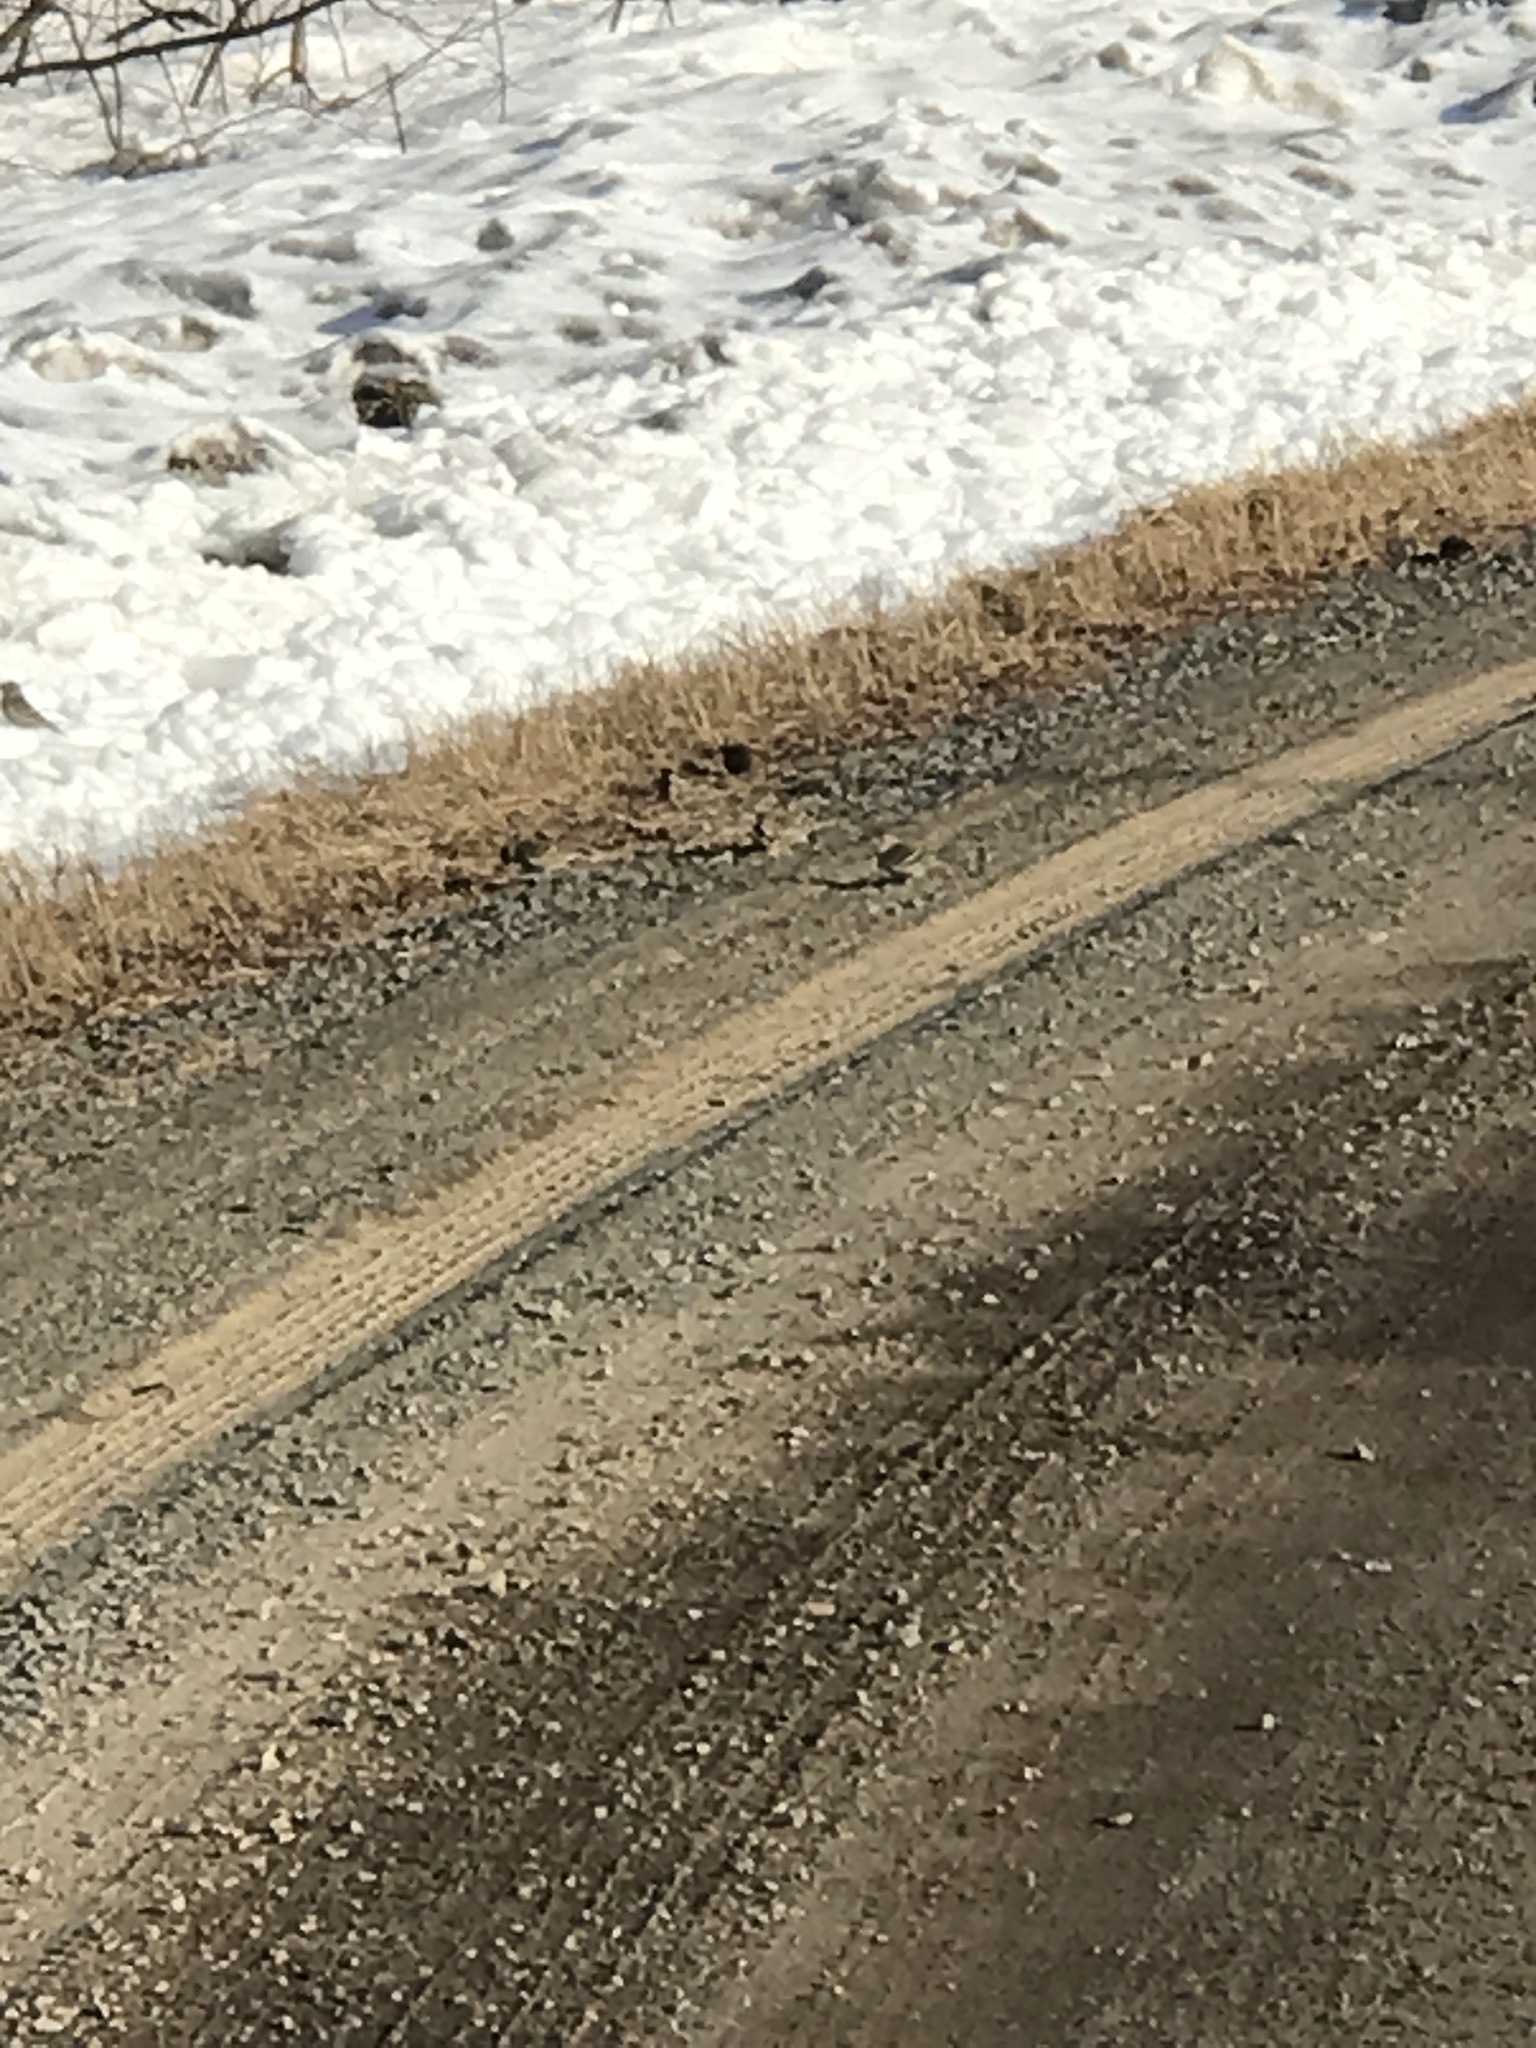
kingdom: Animalia
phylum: Chordata
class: Aves
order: Passeriformes
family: Fringillidae
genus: Spinus
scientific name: Spinus pinus
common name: Pine siskin
